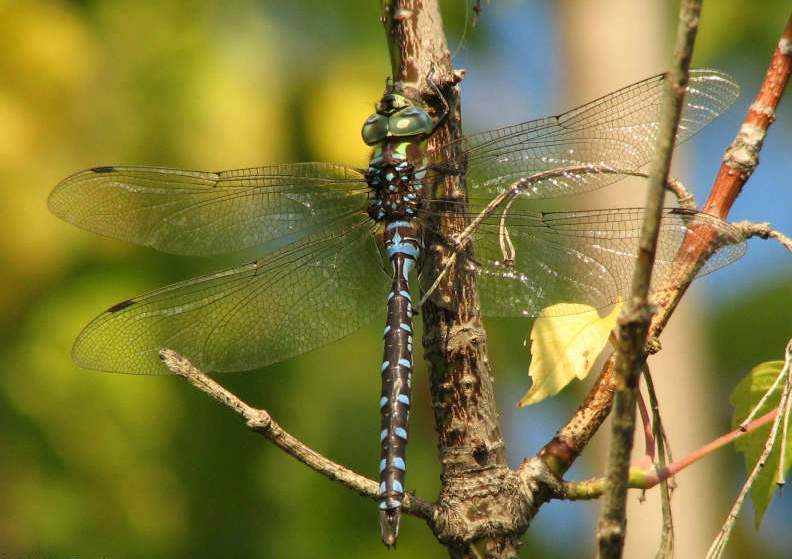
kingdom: Animalia
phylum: Arthropoda
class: Insecta
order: Odonata
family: Aeshnidae
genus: Aeshna
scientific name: Aeshna constricta
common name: Lance-tipped darner
